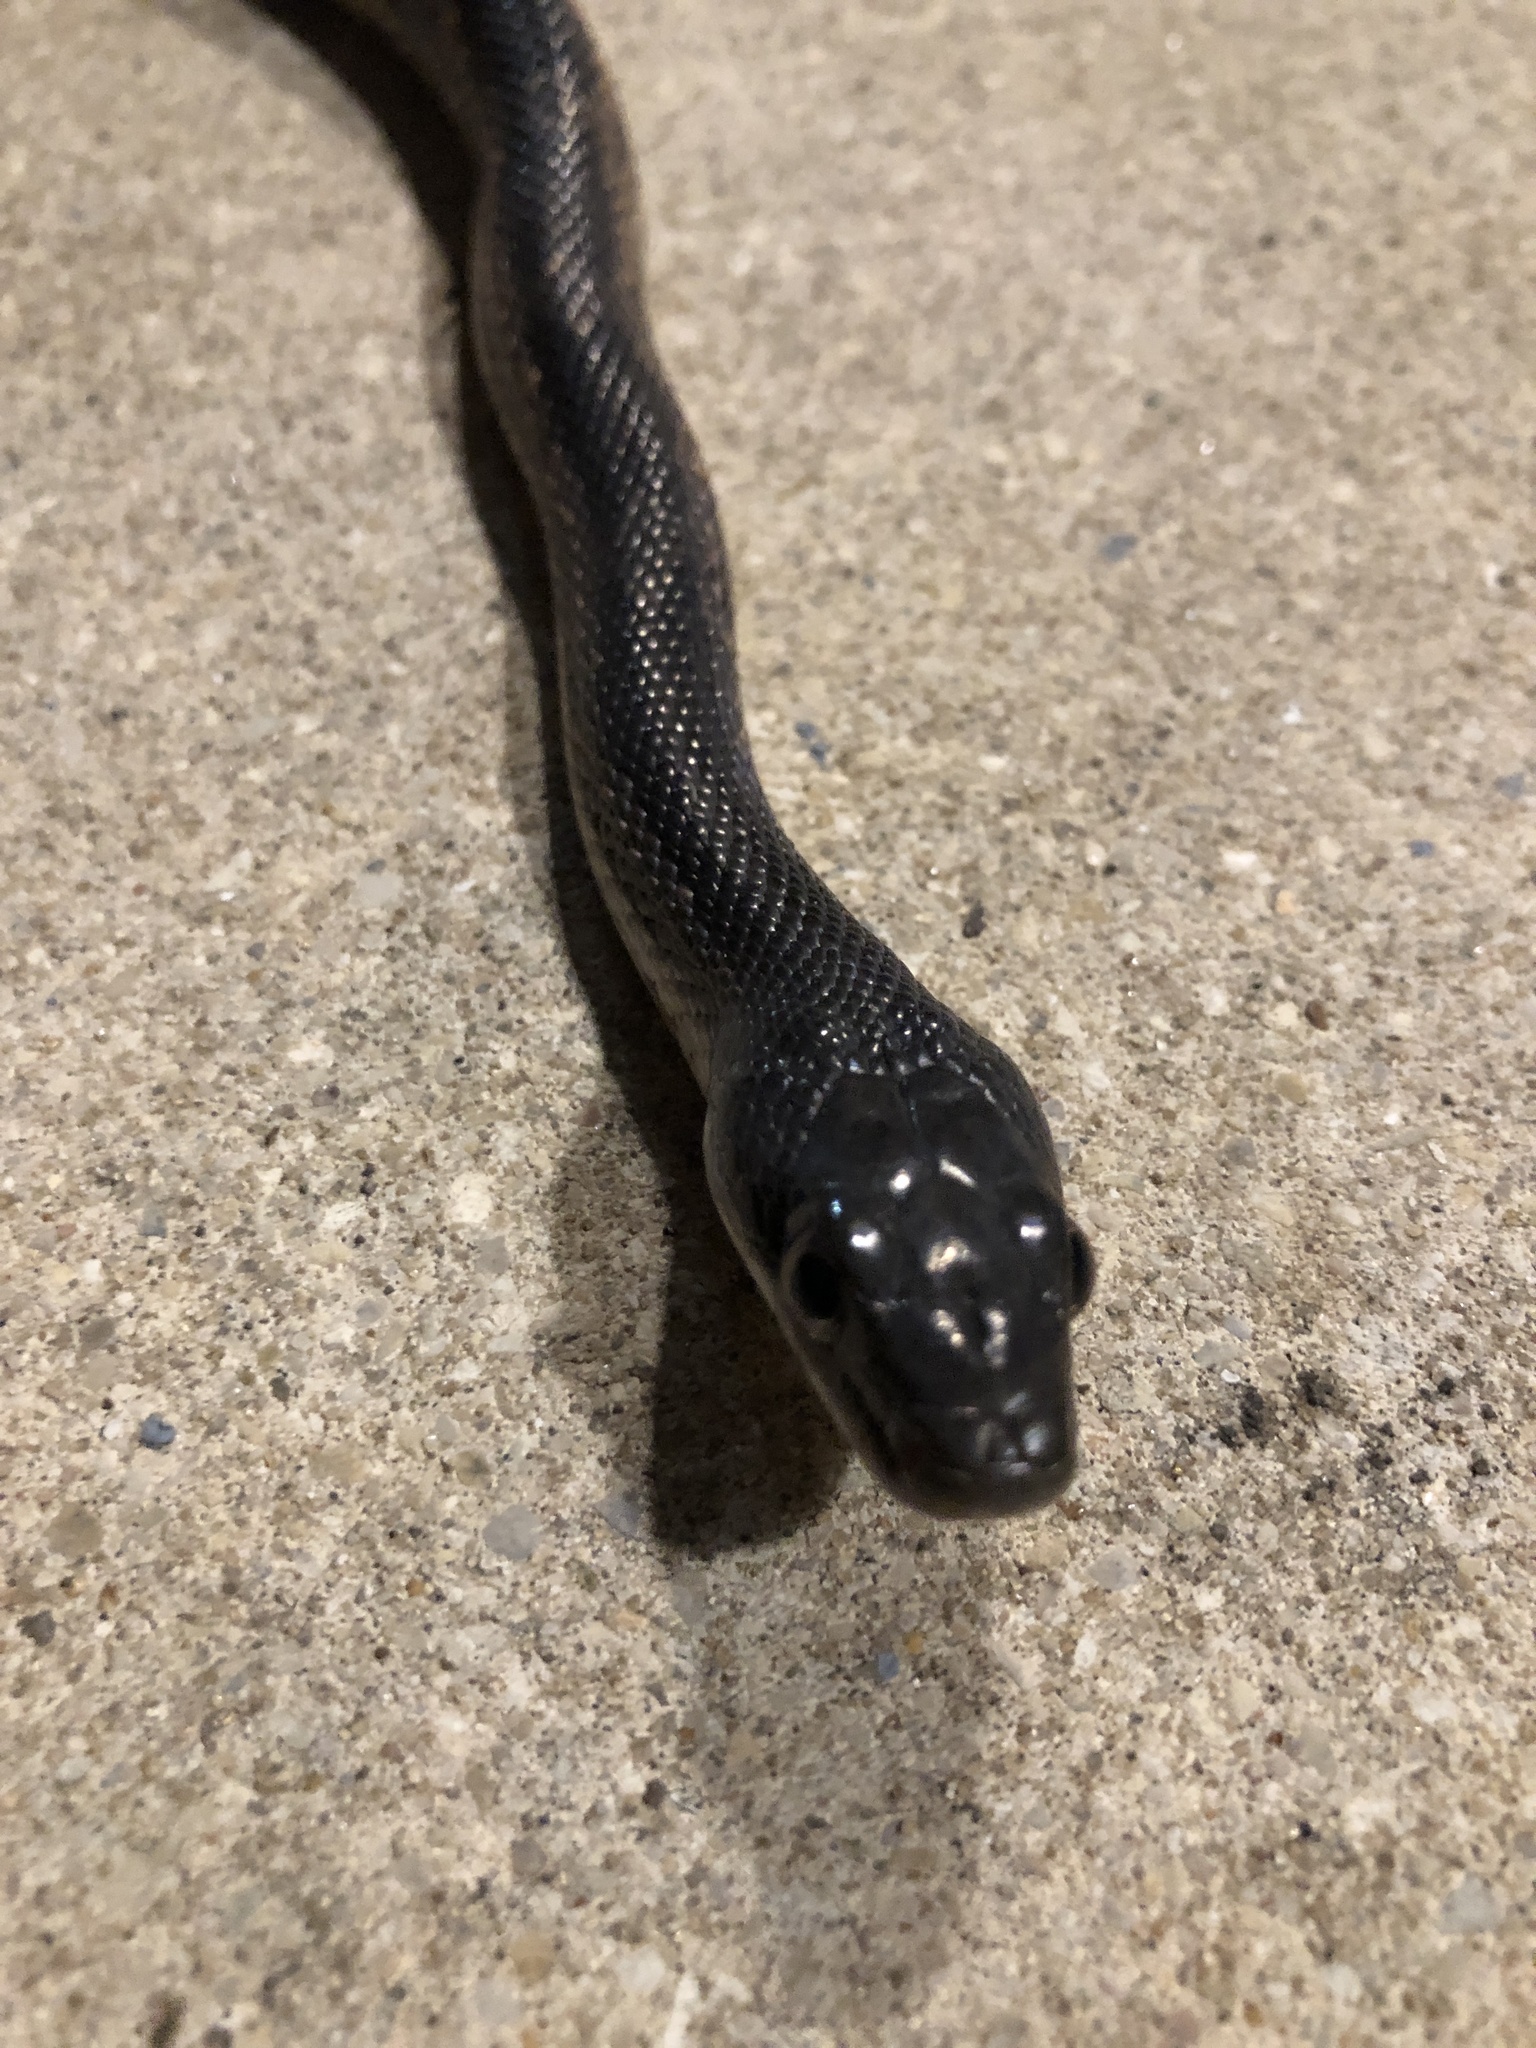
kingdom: Animalia
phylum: Chordata
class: Squamata
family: Colubridae
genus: Pantherophis
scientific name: Pantherophis obsoletus
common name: Black rat snake
